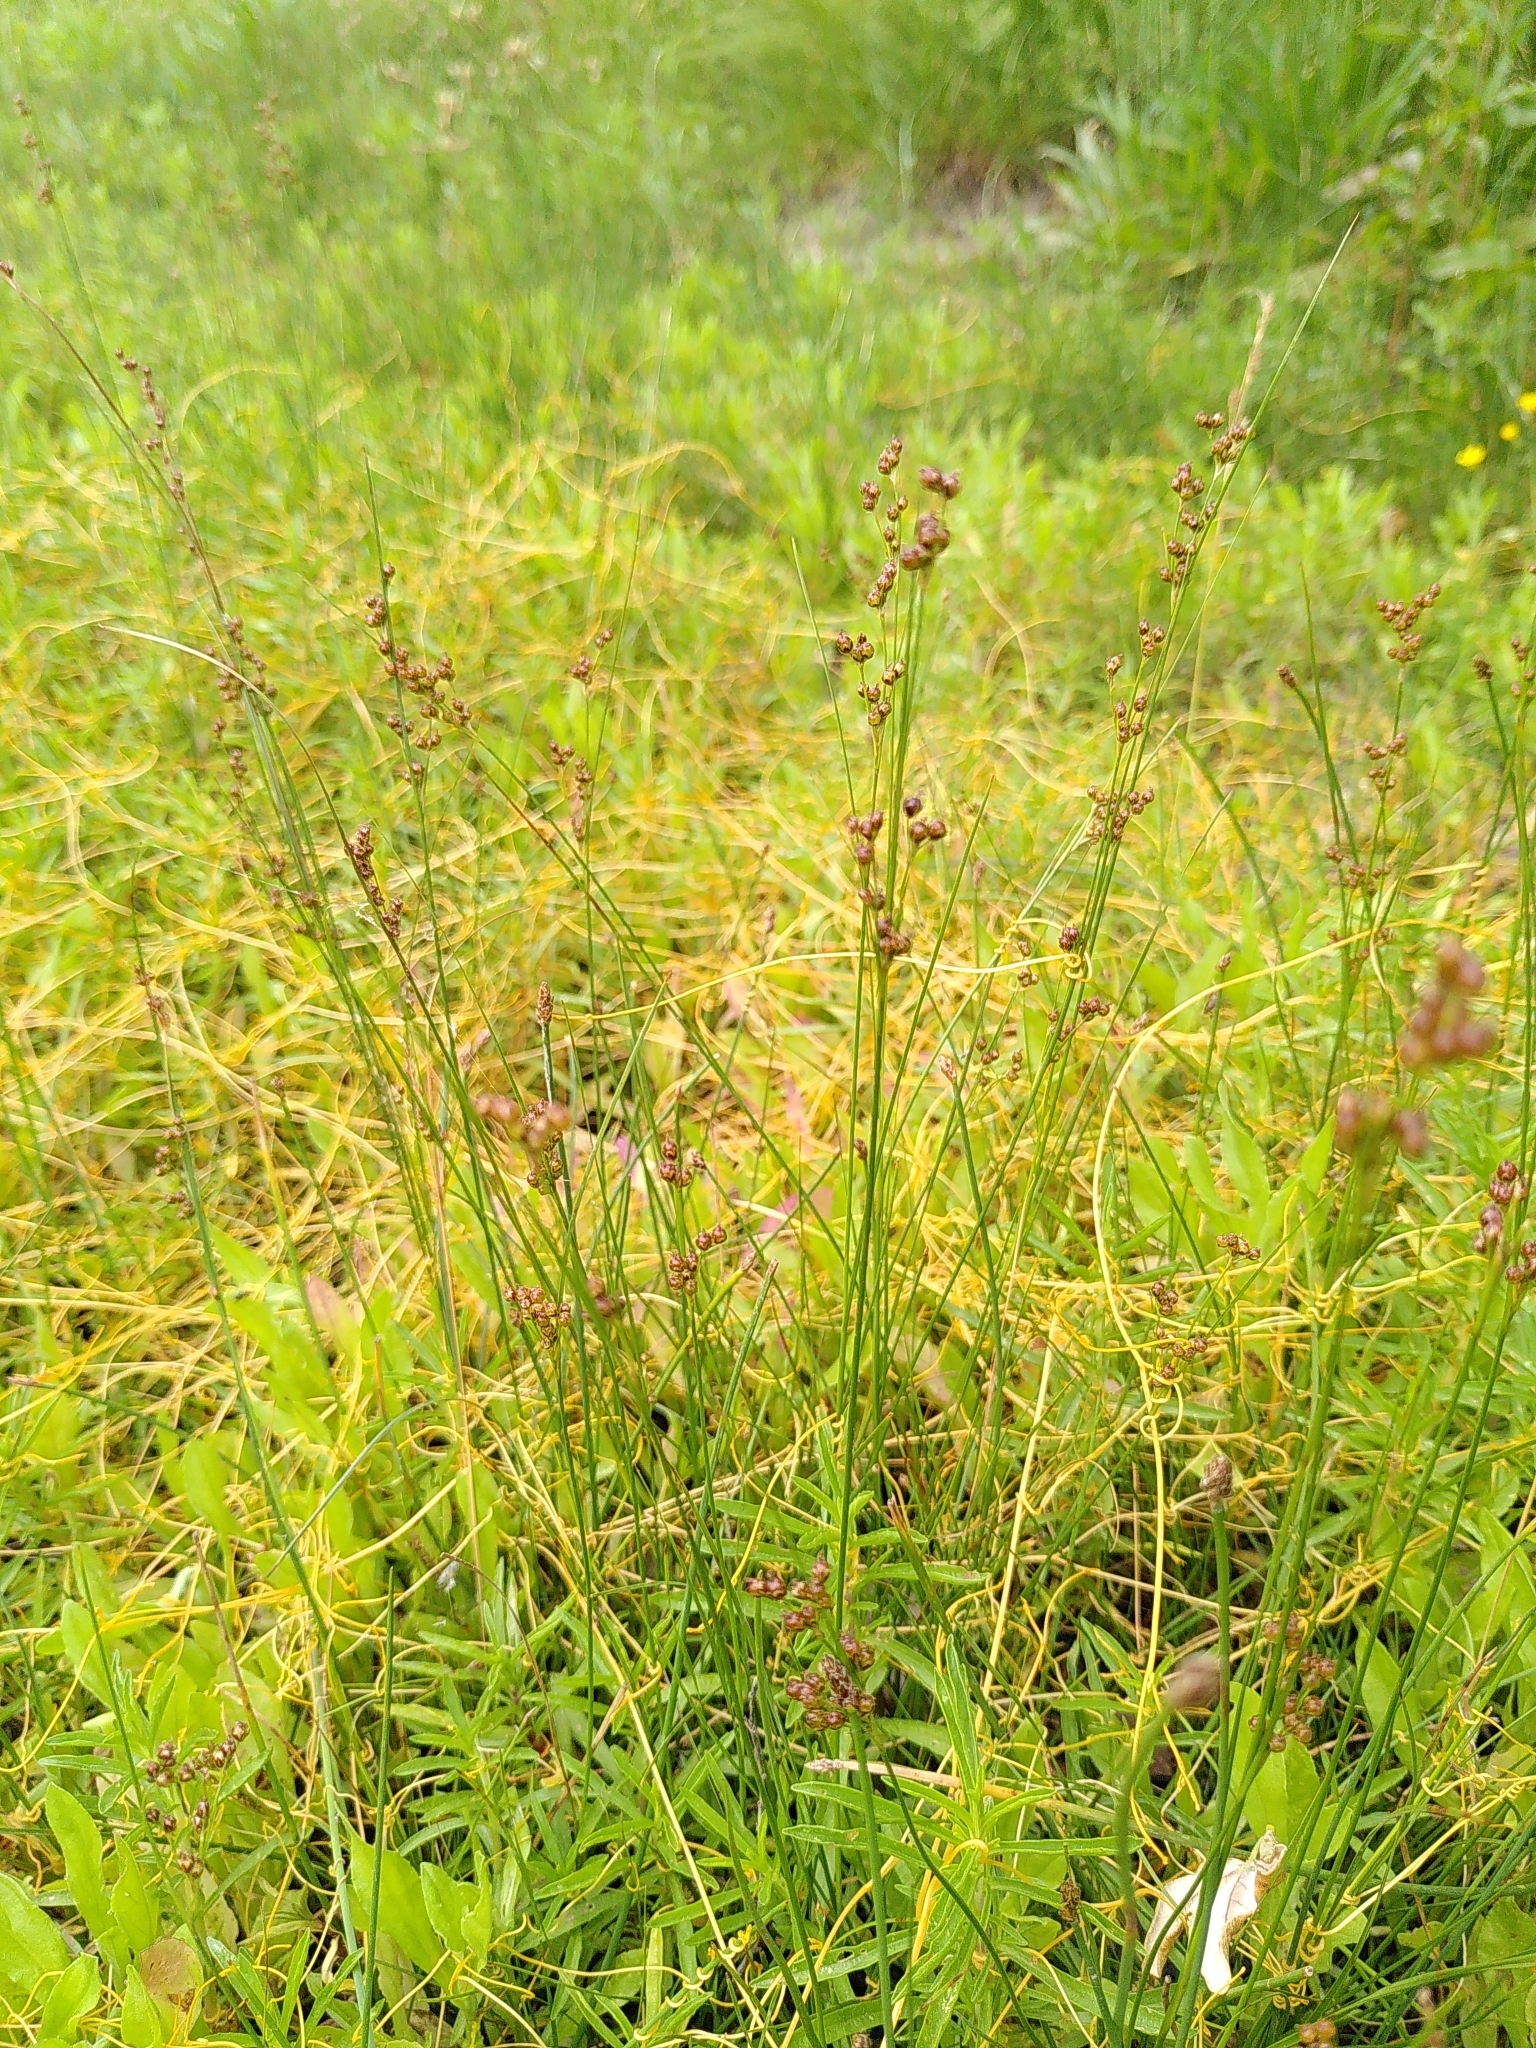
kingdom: Plantae
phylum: Tracheophyta
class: Liliopsida
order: Poales
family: Juncaceae
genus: Juncus
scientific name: Juncus compressus
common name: Round-fruited rush
